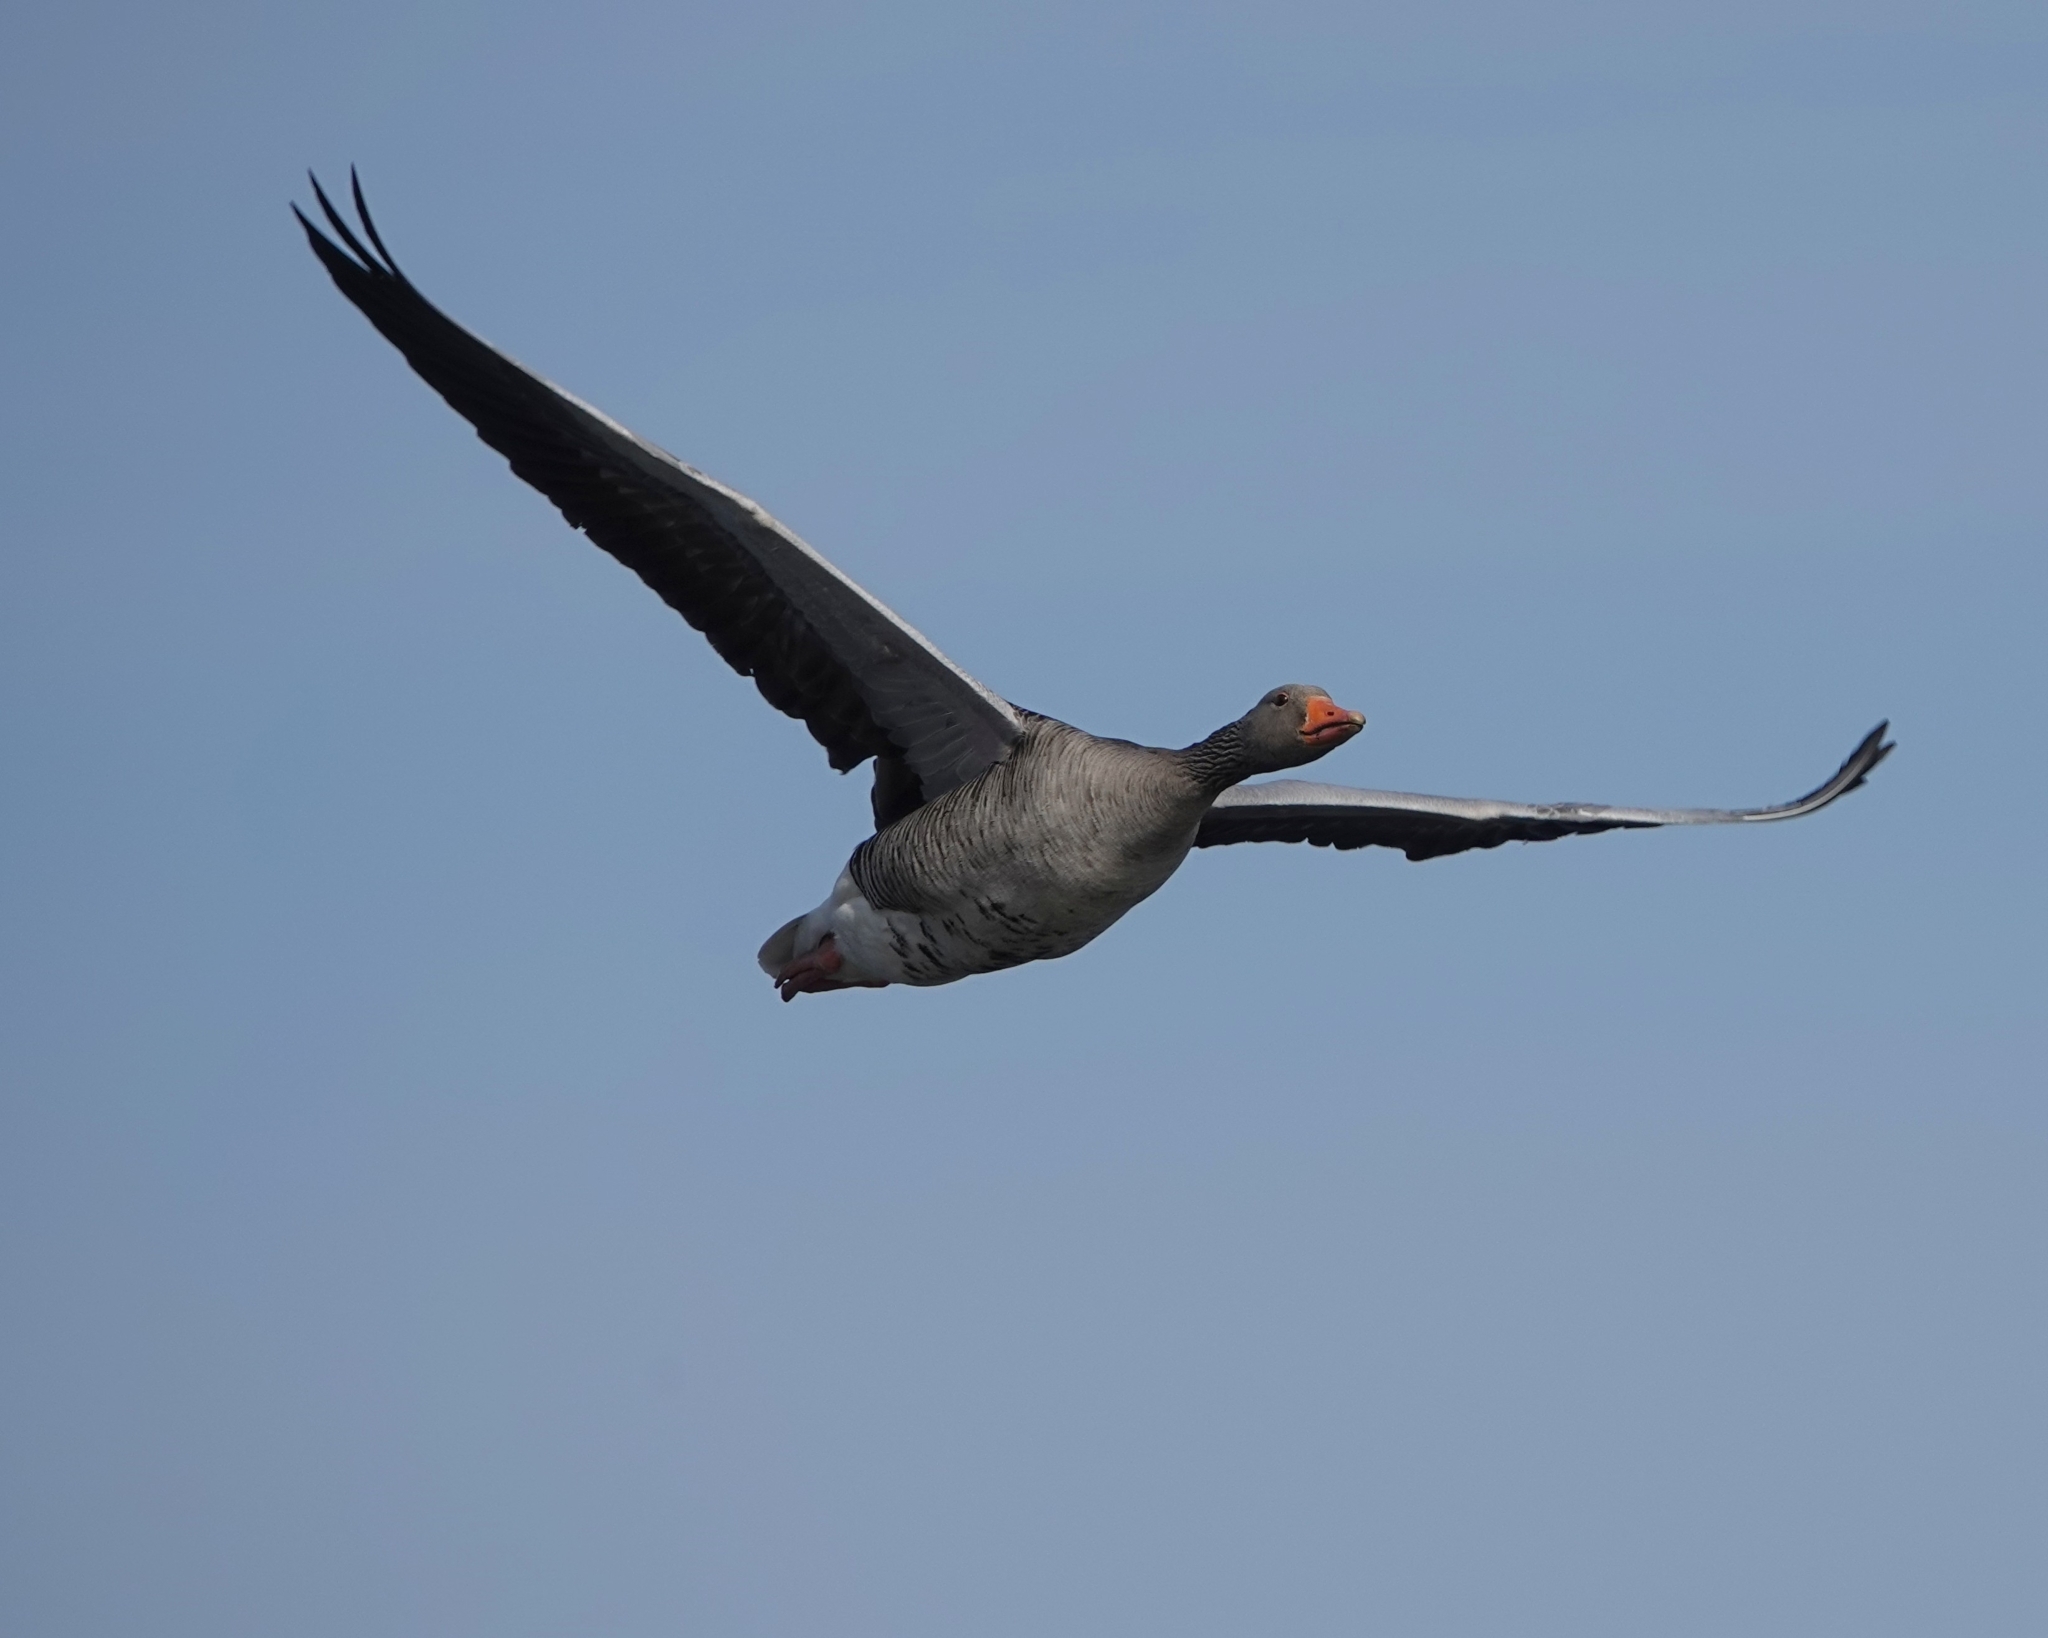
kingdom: Animalia
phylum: Chordata
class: Aves
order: Anseriformes
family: Anatidae
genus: Anser
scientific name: Anser anser
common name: Greylag goose
